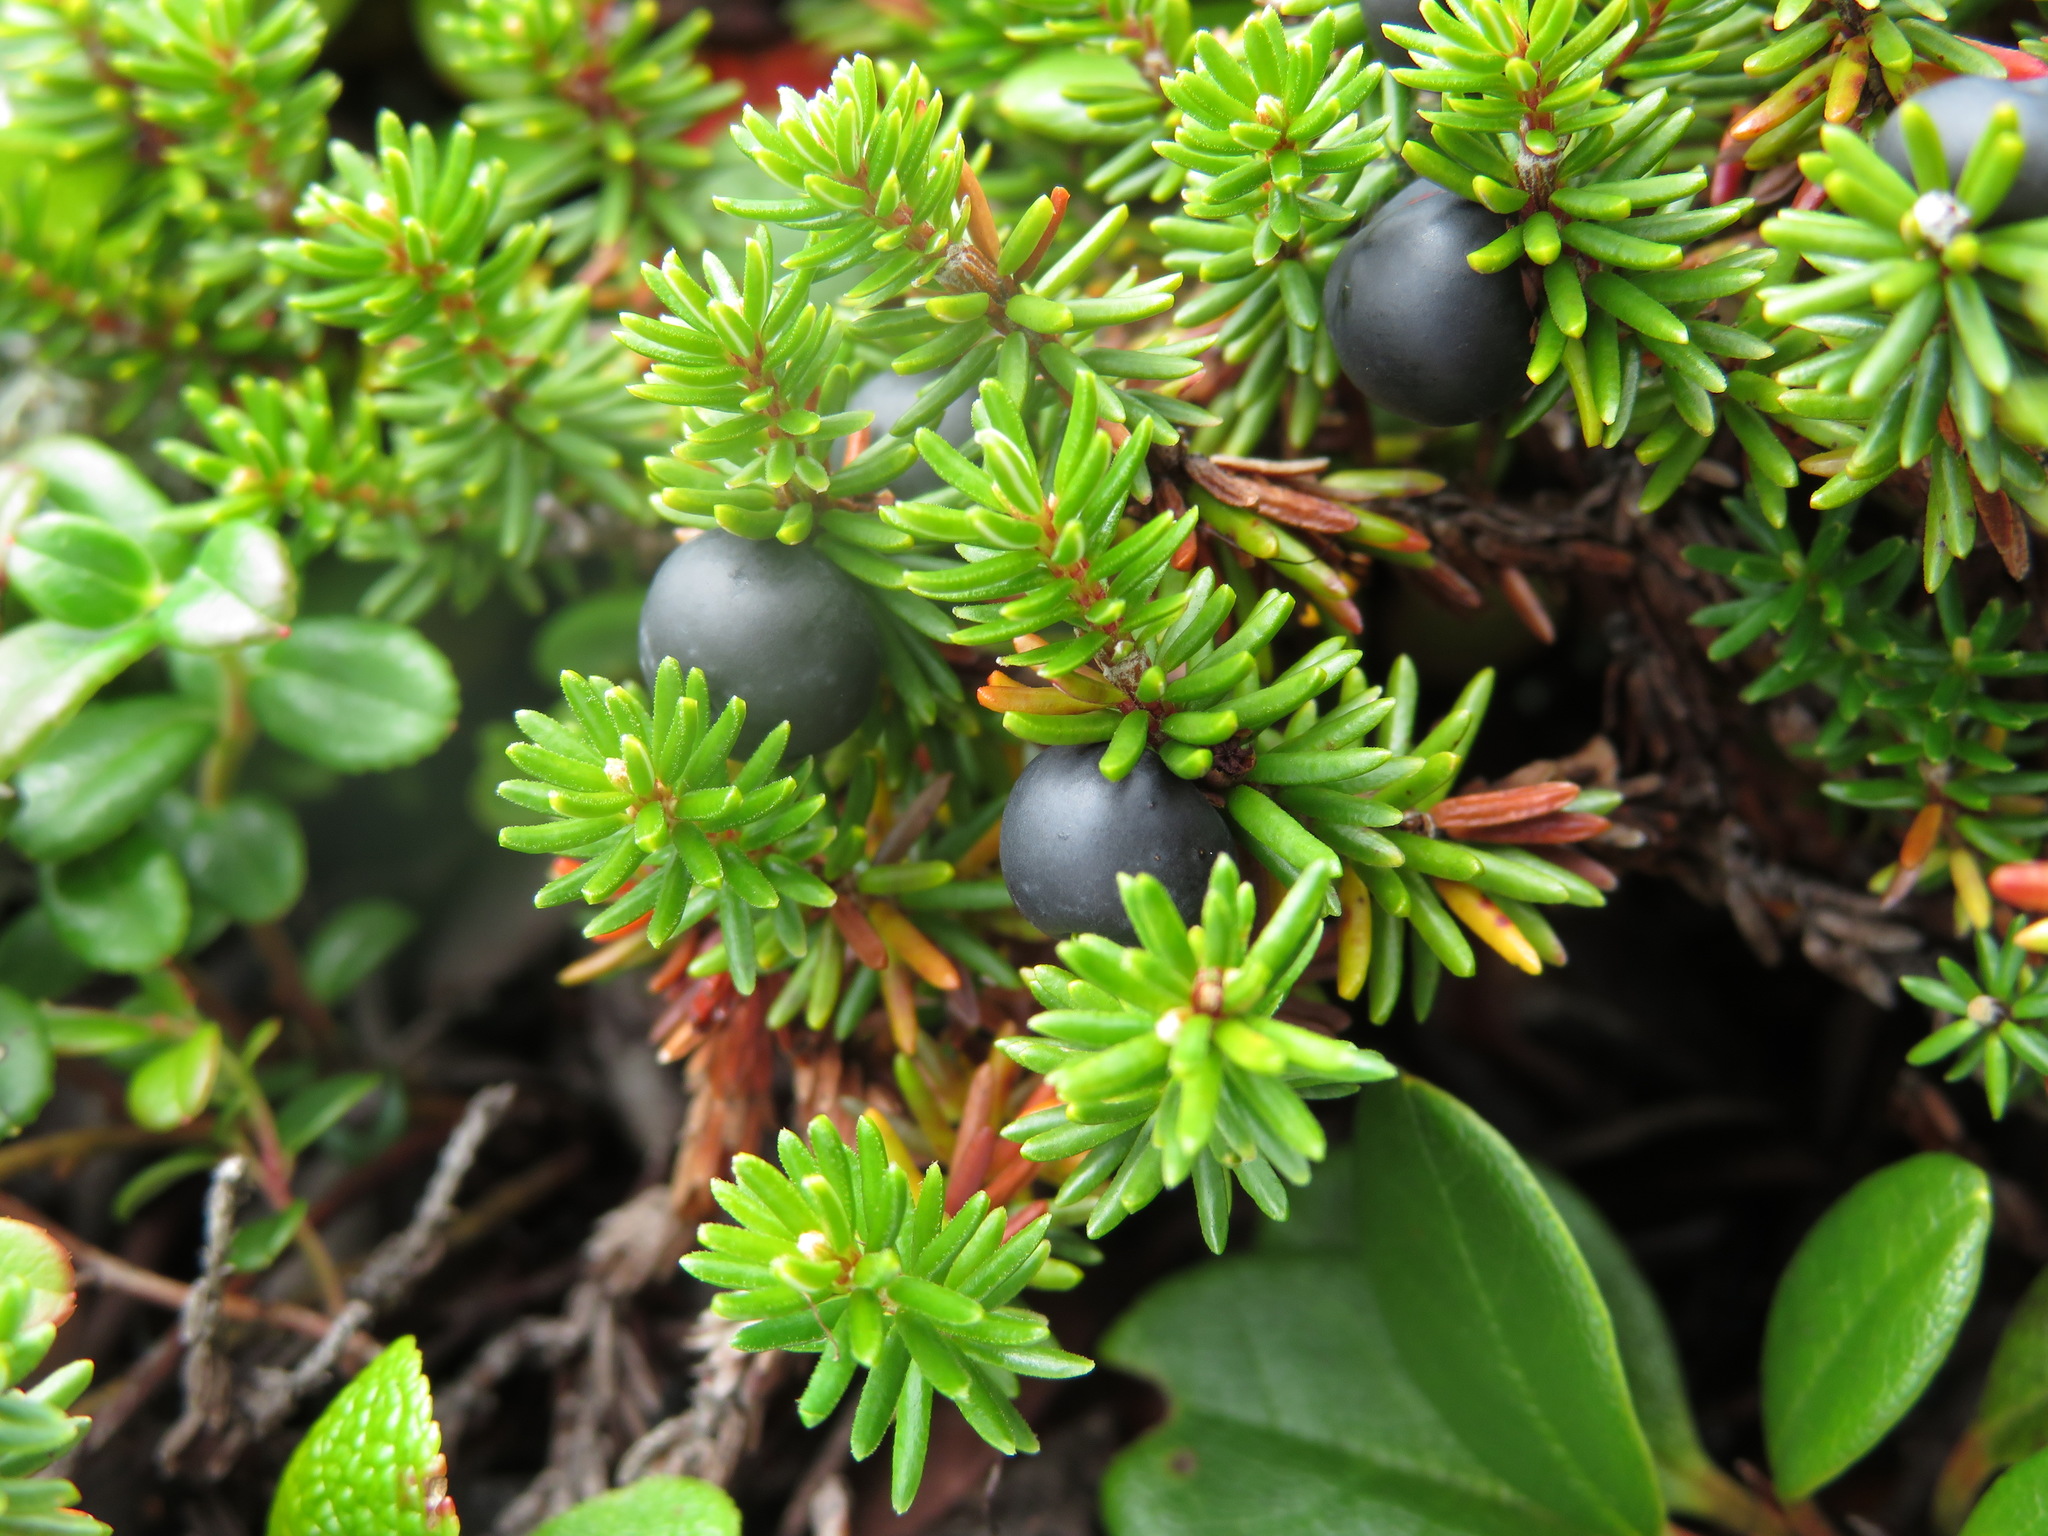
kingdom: Plantae
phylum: Tracheophyta
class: Magnoliopsida
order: Ericales
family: Ericaceae
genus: Empetrum
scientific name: Empetrum nigrum
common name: Black crowberry
